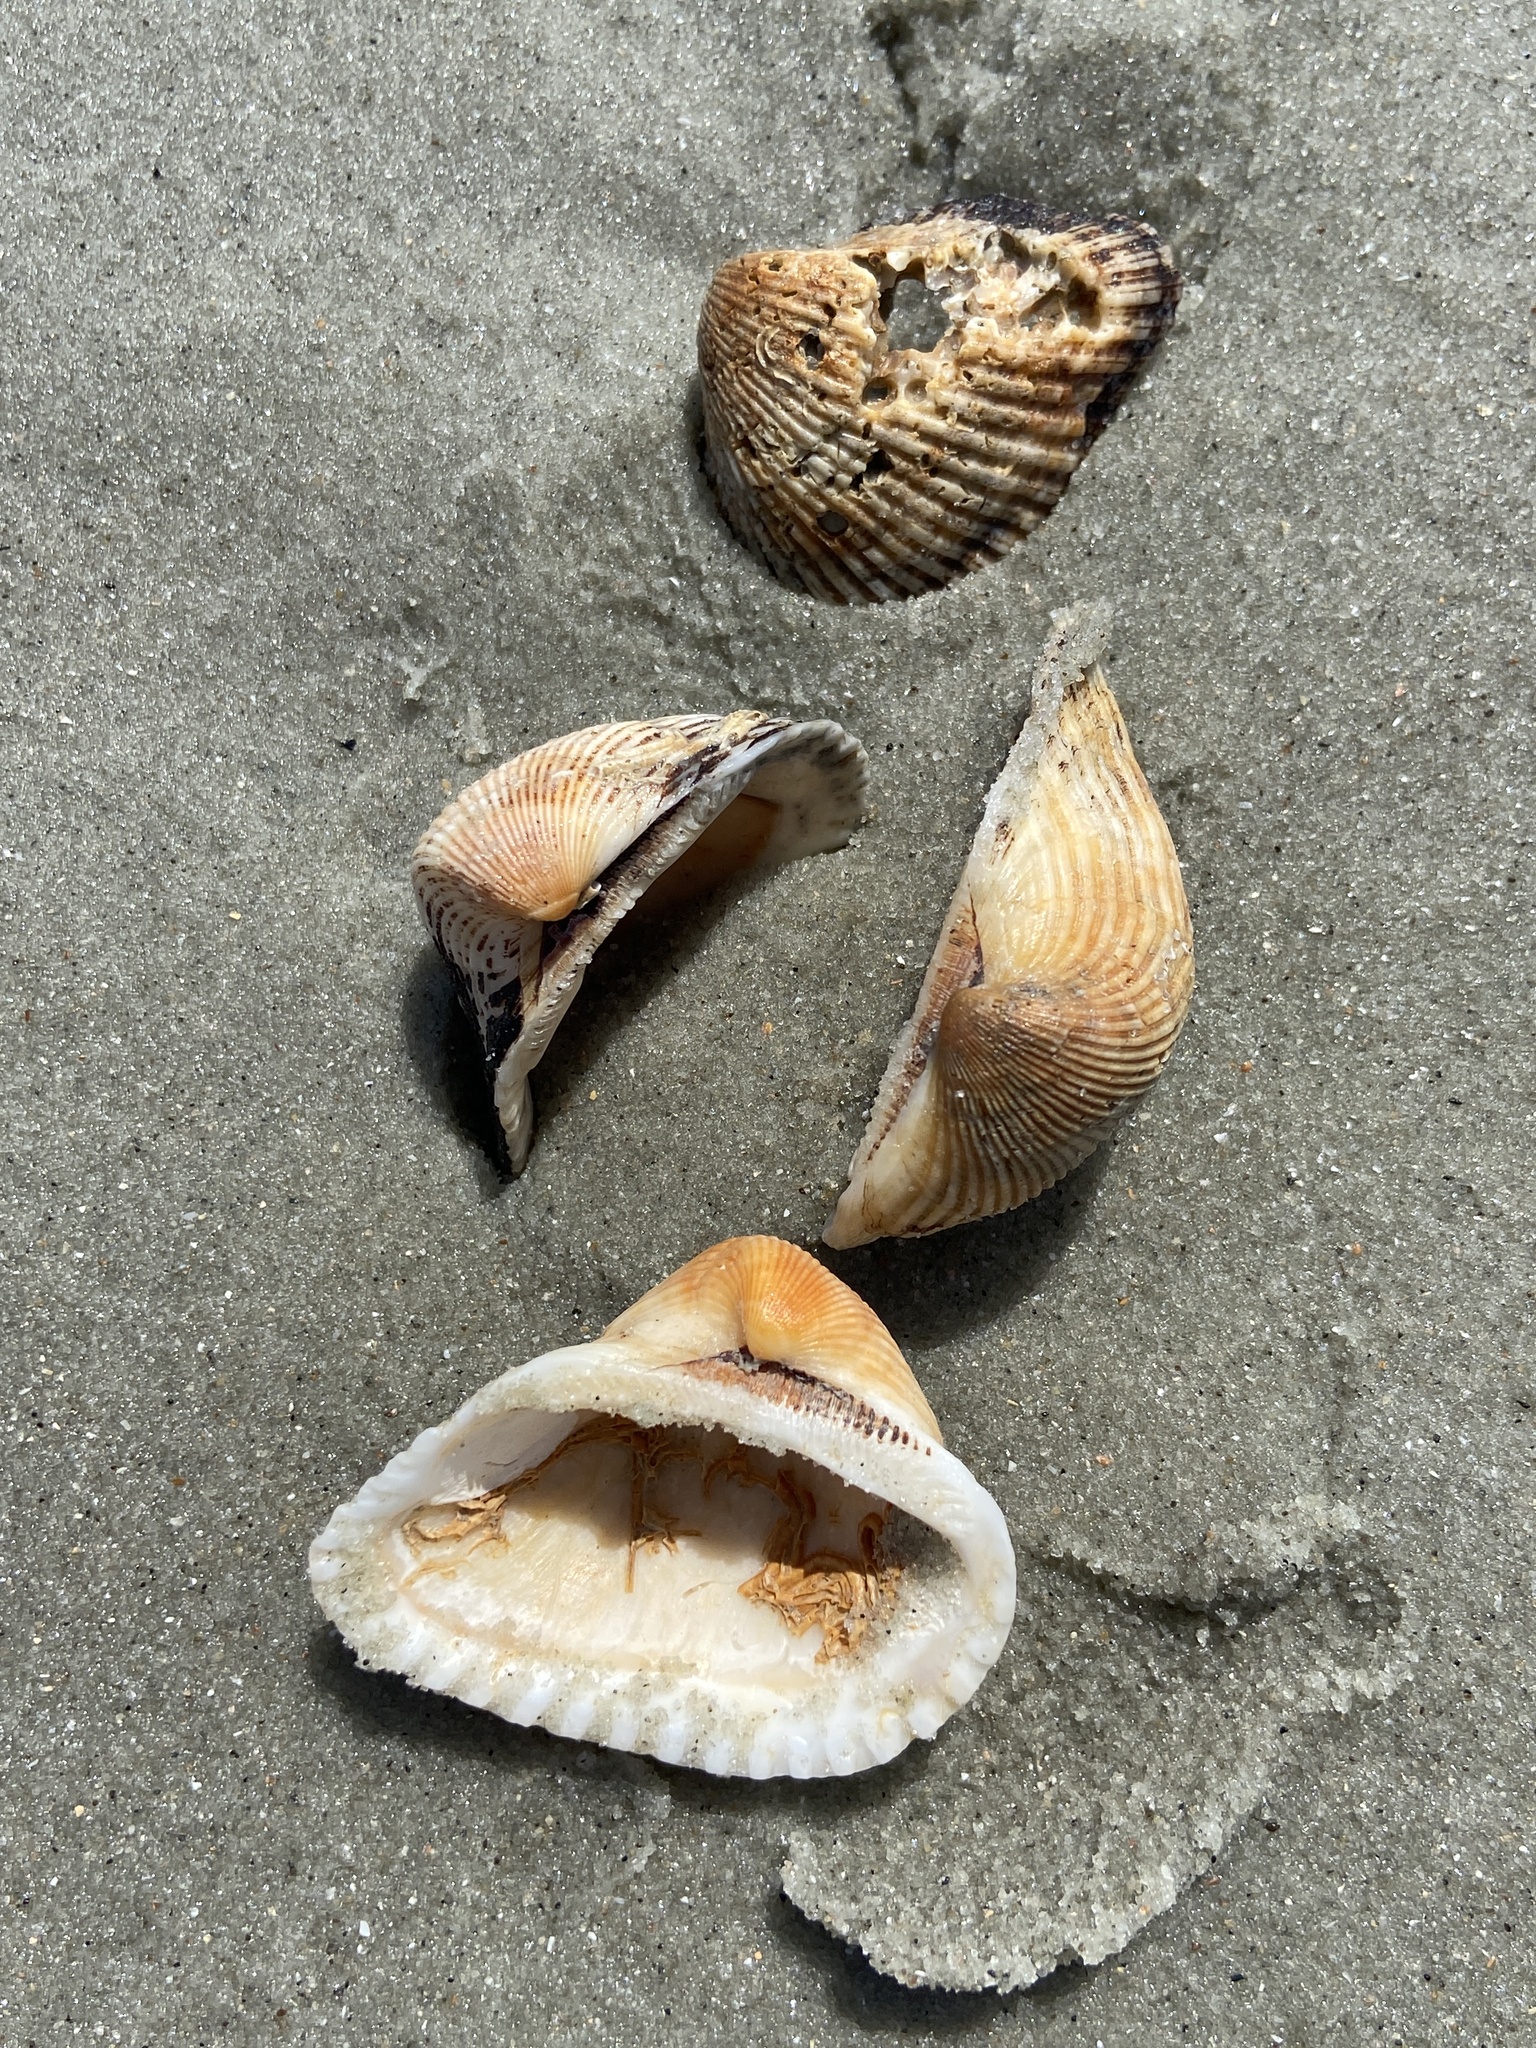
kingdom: Animalia
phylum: Mollusca
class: Bivalvia
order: Arcida
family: Noetiidae
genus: Noetia
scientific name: Noetia ponderosa
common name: Ponderous ark
